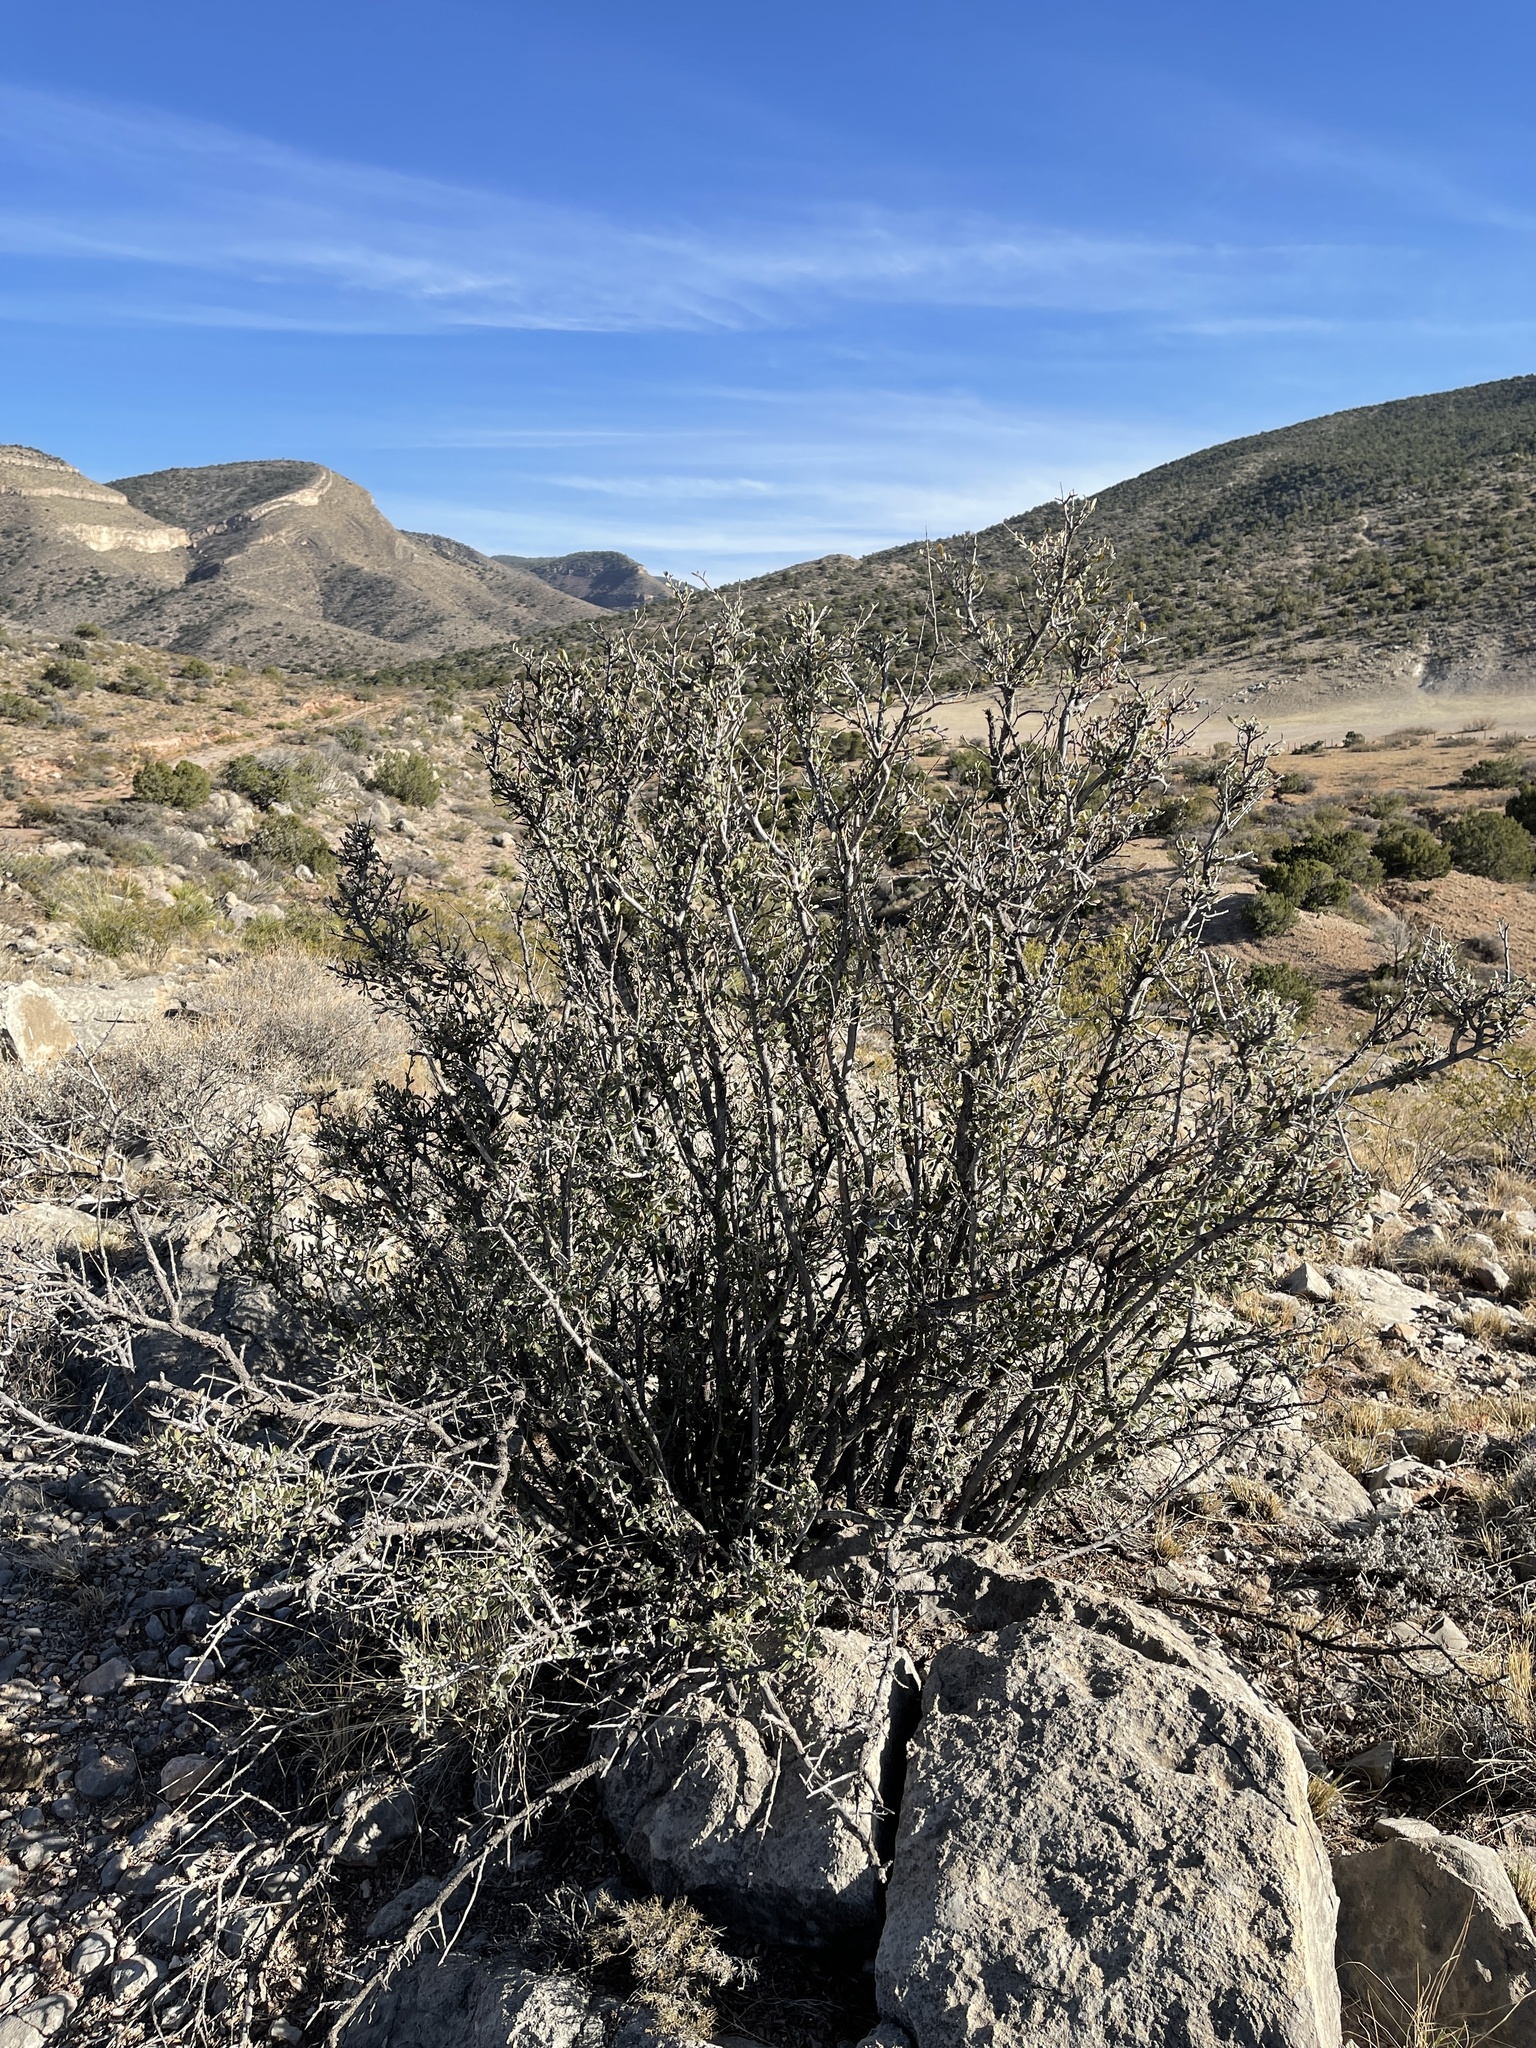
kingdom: Plantae
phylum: Tracheophyta
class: Magnoliopsida
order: Rosales
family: Rosaceae
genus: Cercocarpus
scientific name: Cercocarpus breviflorus
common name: Wright's mountain-mahogany
